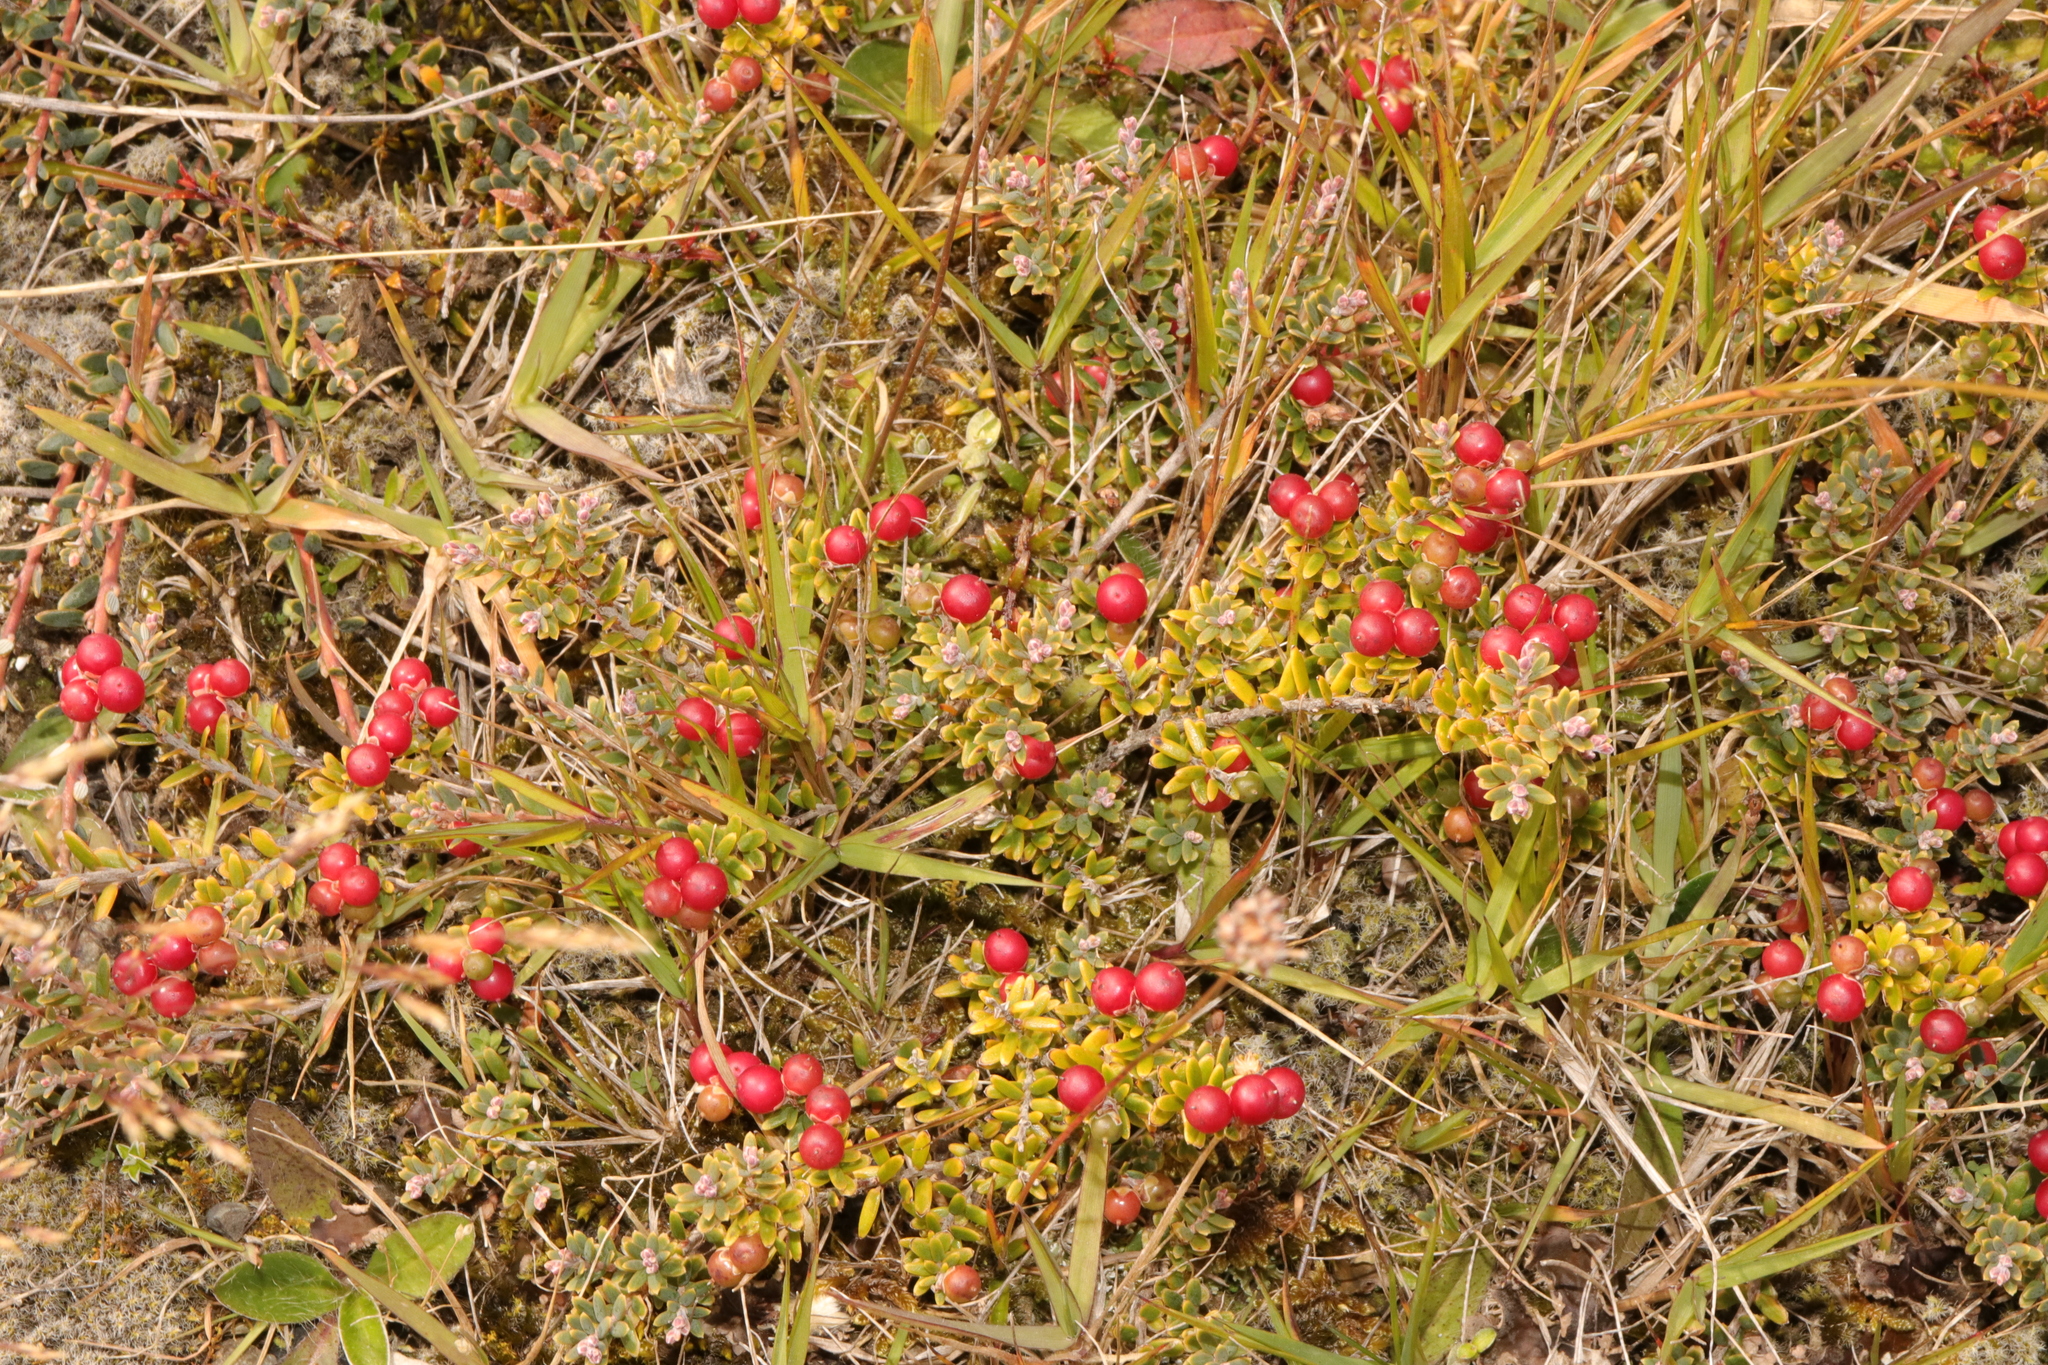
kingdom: Plantae
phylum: Tracheophyta
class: Magnoliopsida
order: Ericales
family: Ericaceae
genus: Acrothamnus
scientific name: Acrothamnus colensoi
